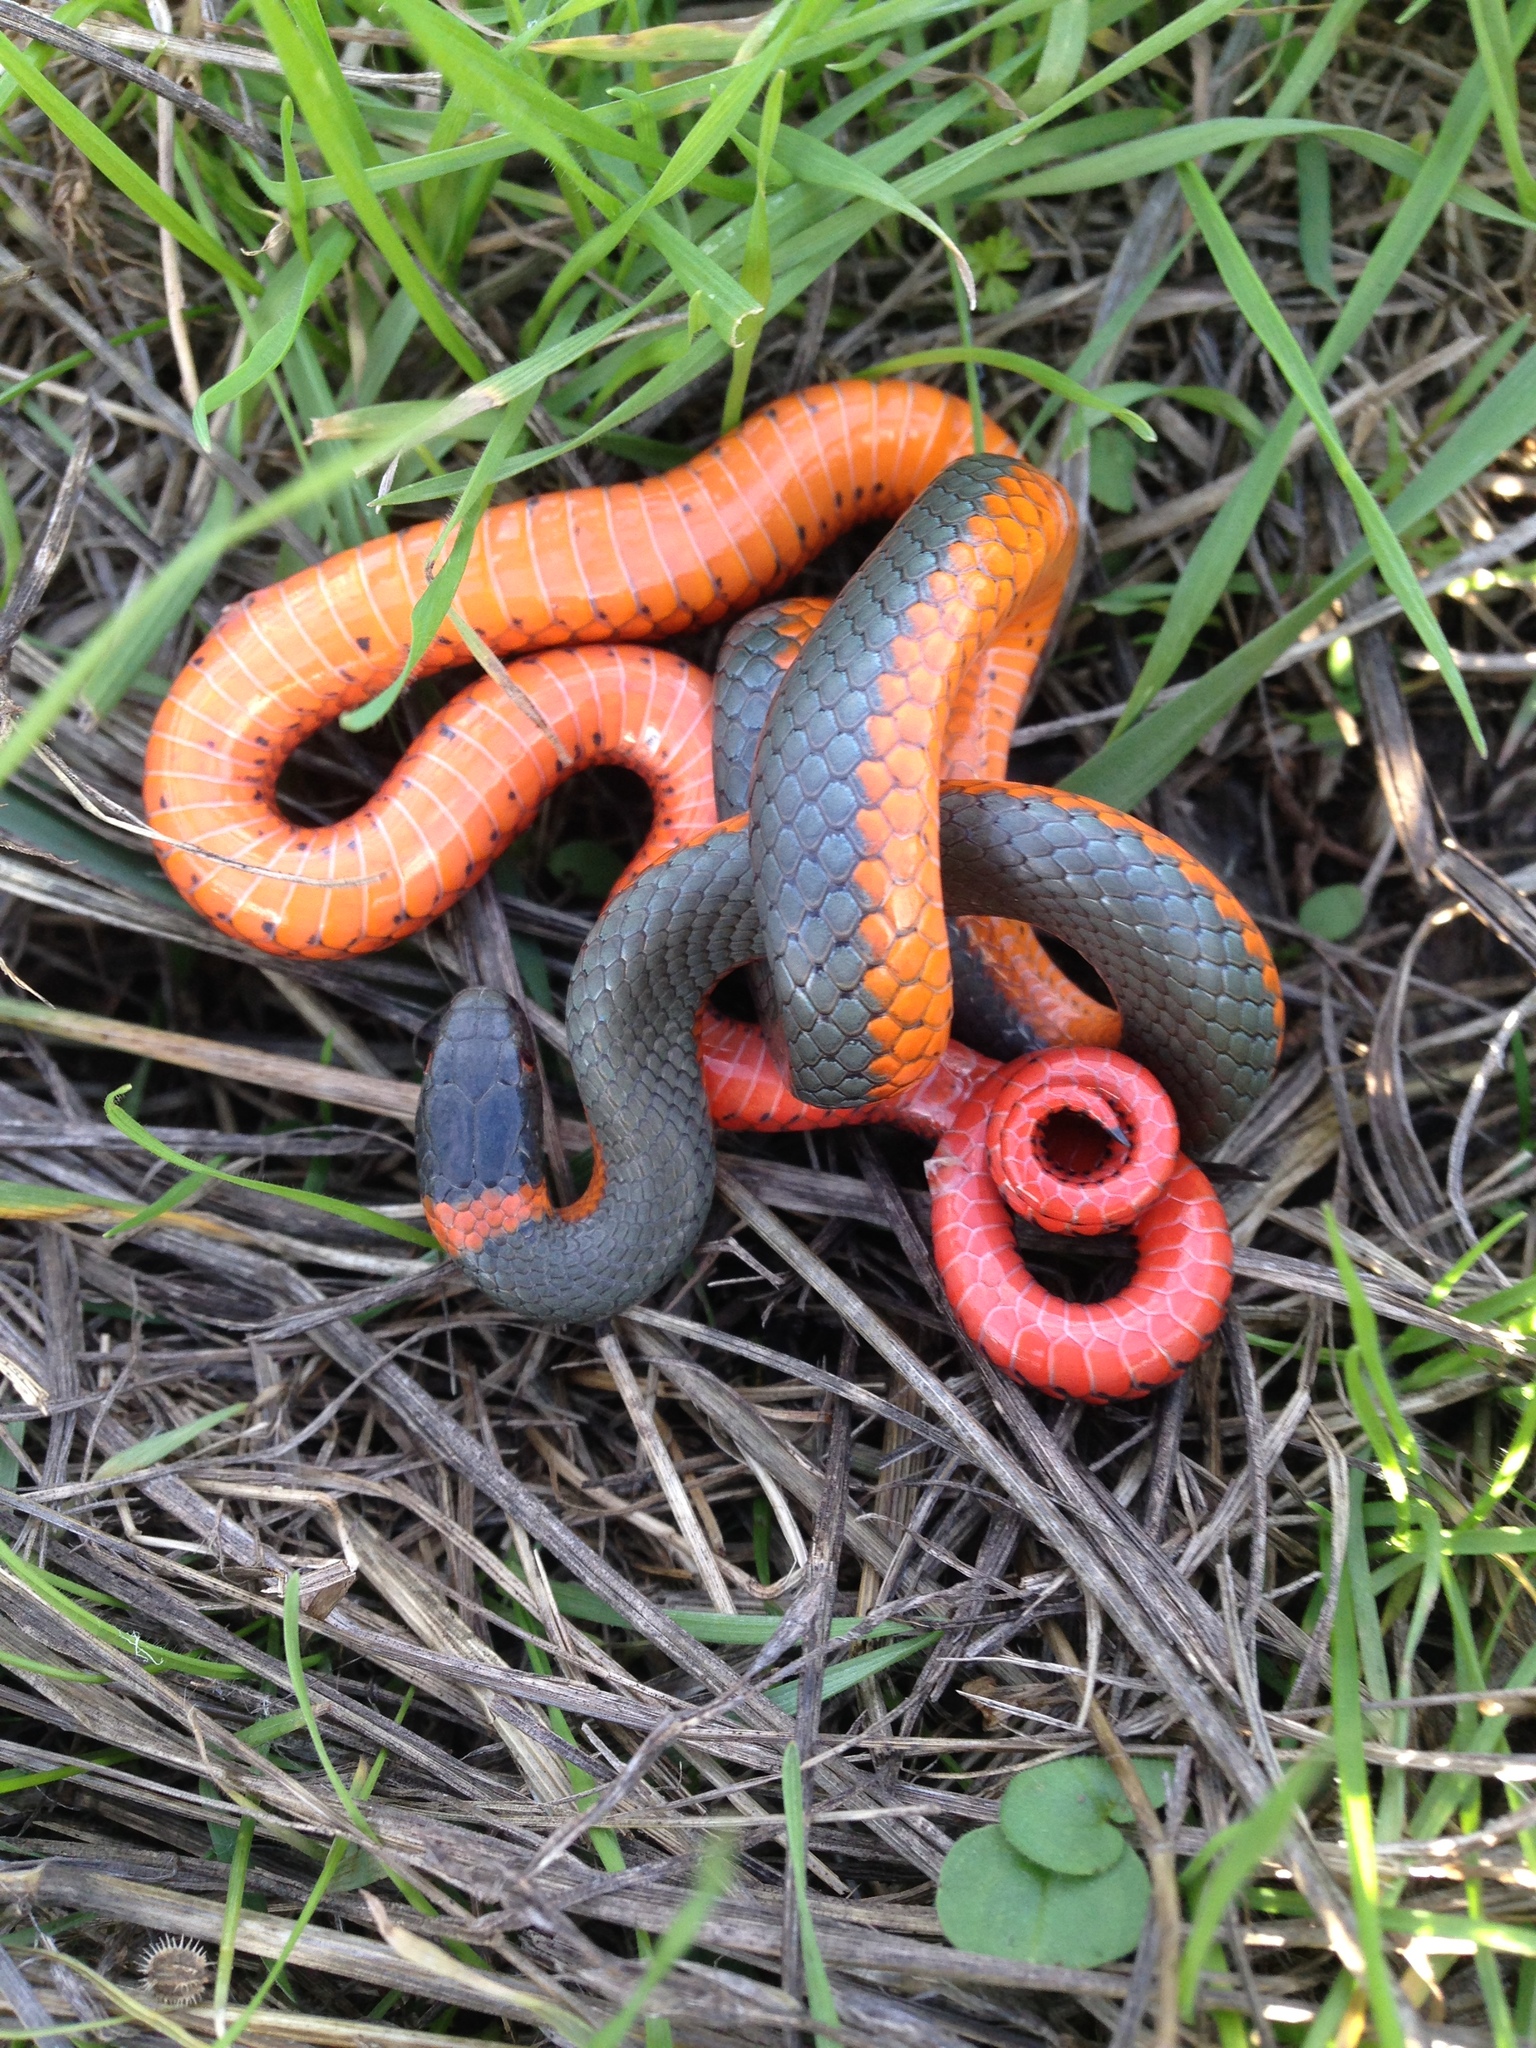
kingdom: Animalia
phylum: Chordata
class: Squamata
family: Colubridae
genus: Diadophis
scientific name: Diadophis punctatus
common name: Ringneck snake
